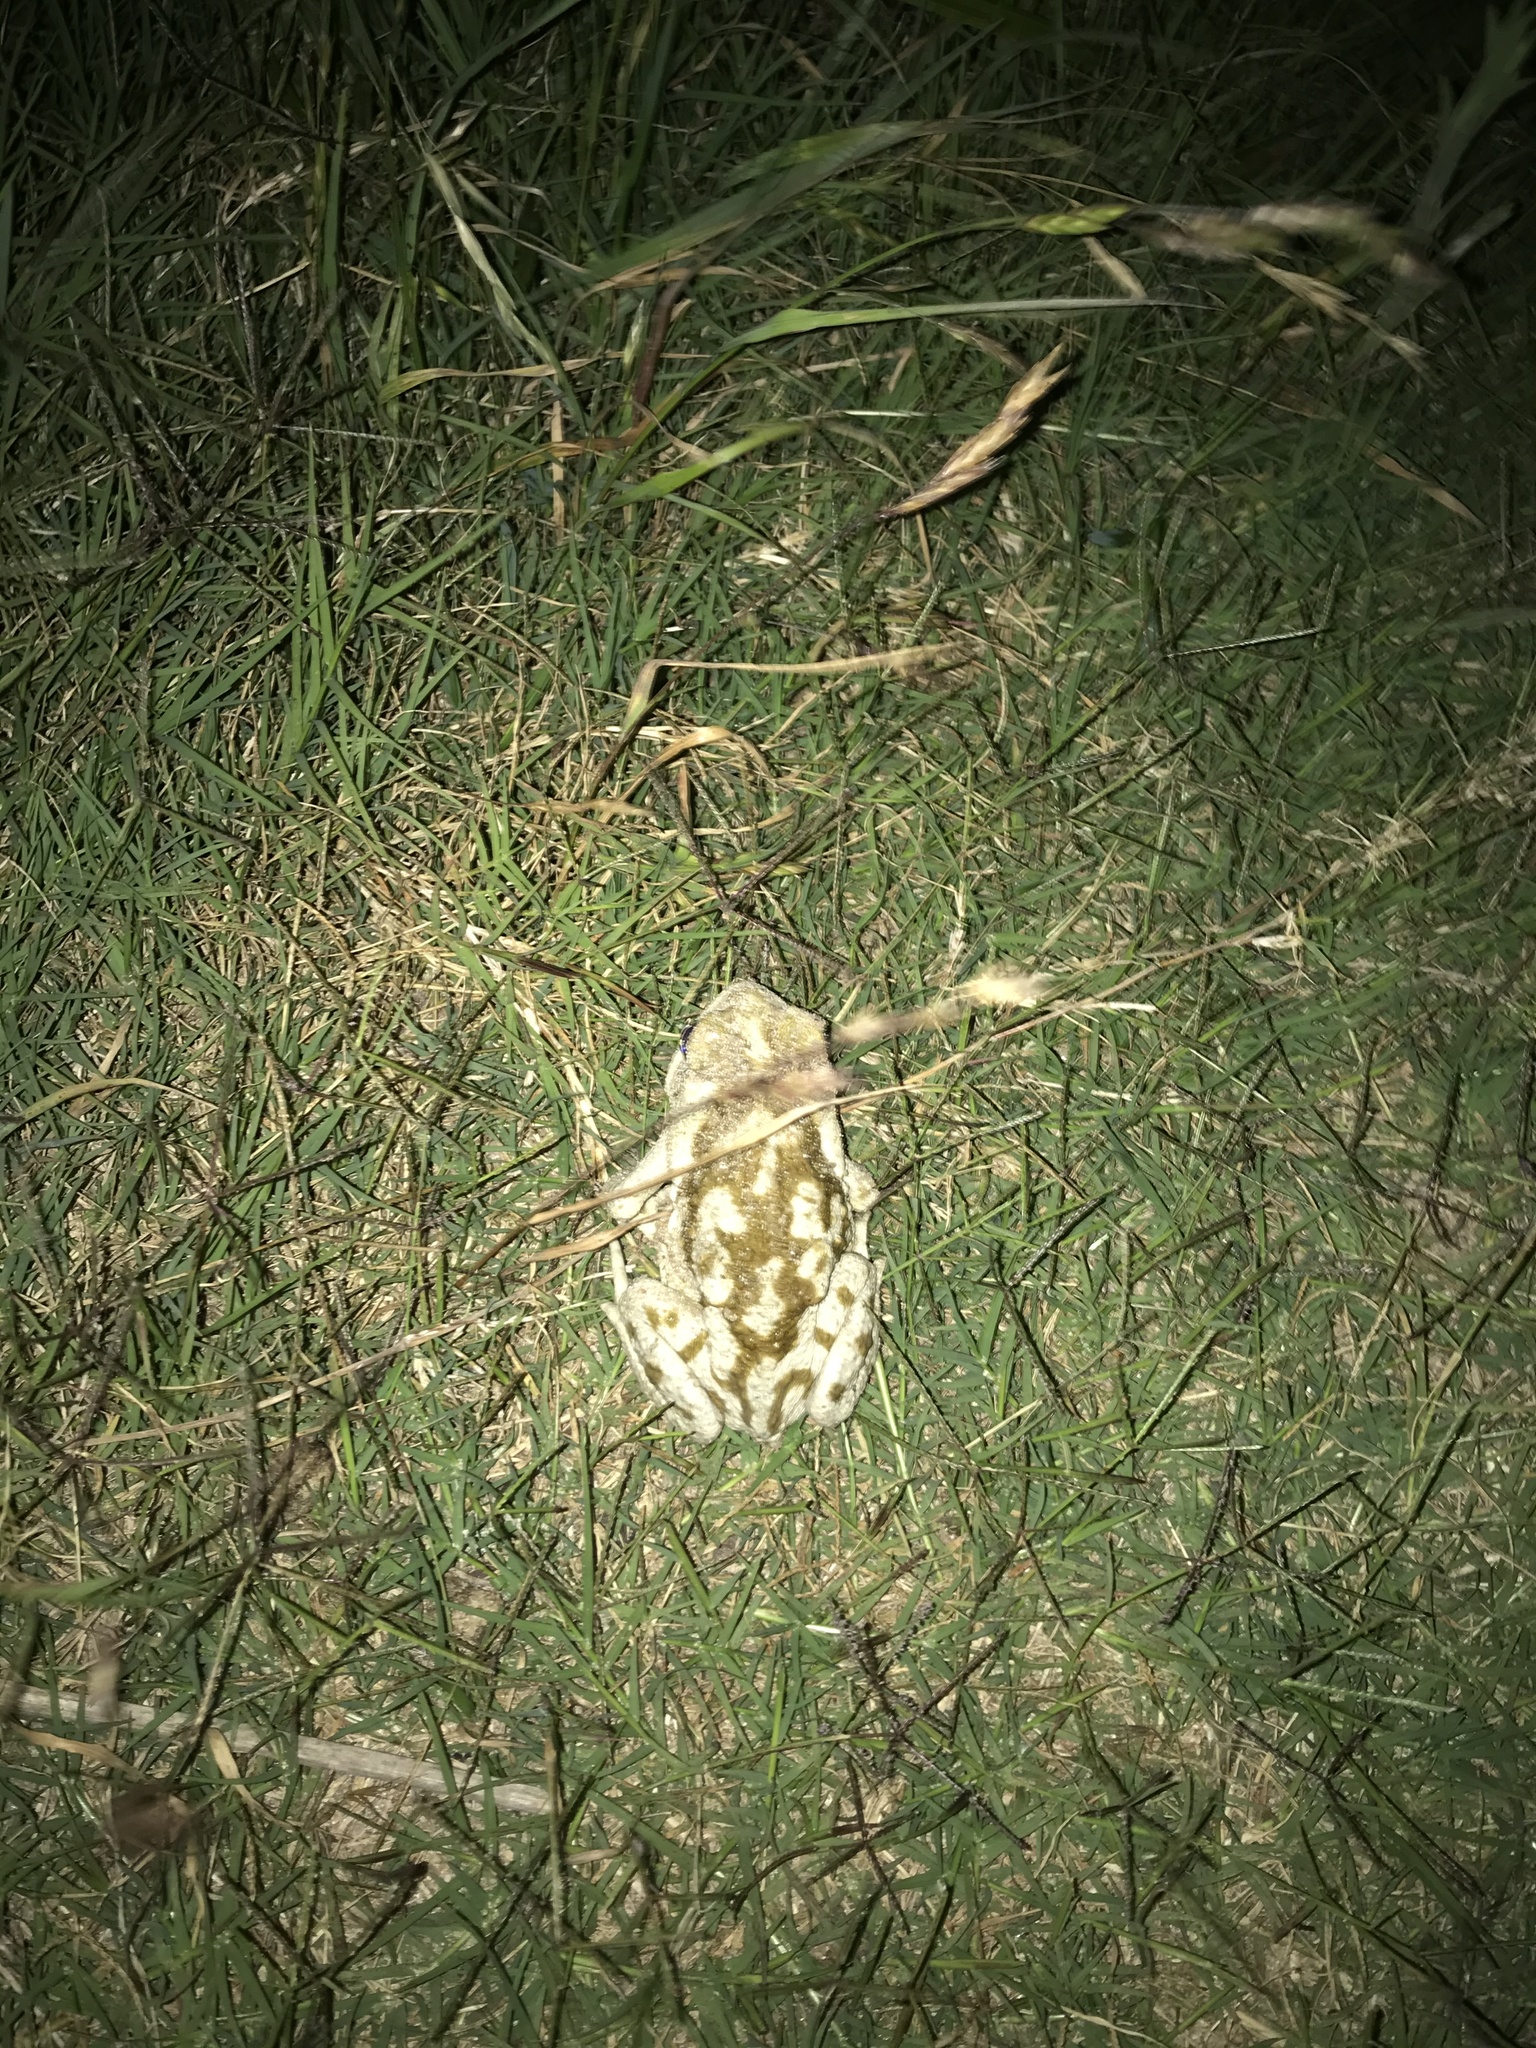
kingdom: Animalia
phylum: Chordata
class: Amphibia
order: Anura
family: Bufonidae
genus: Rhinella
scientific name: Rhinella arenarum
